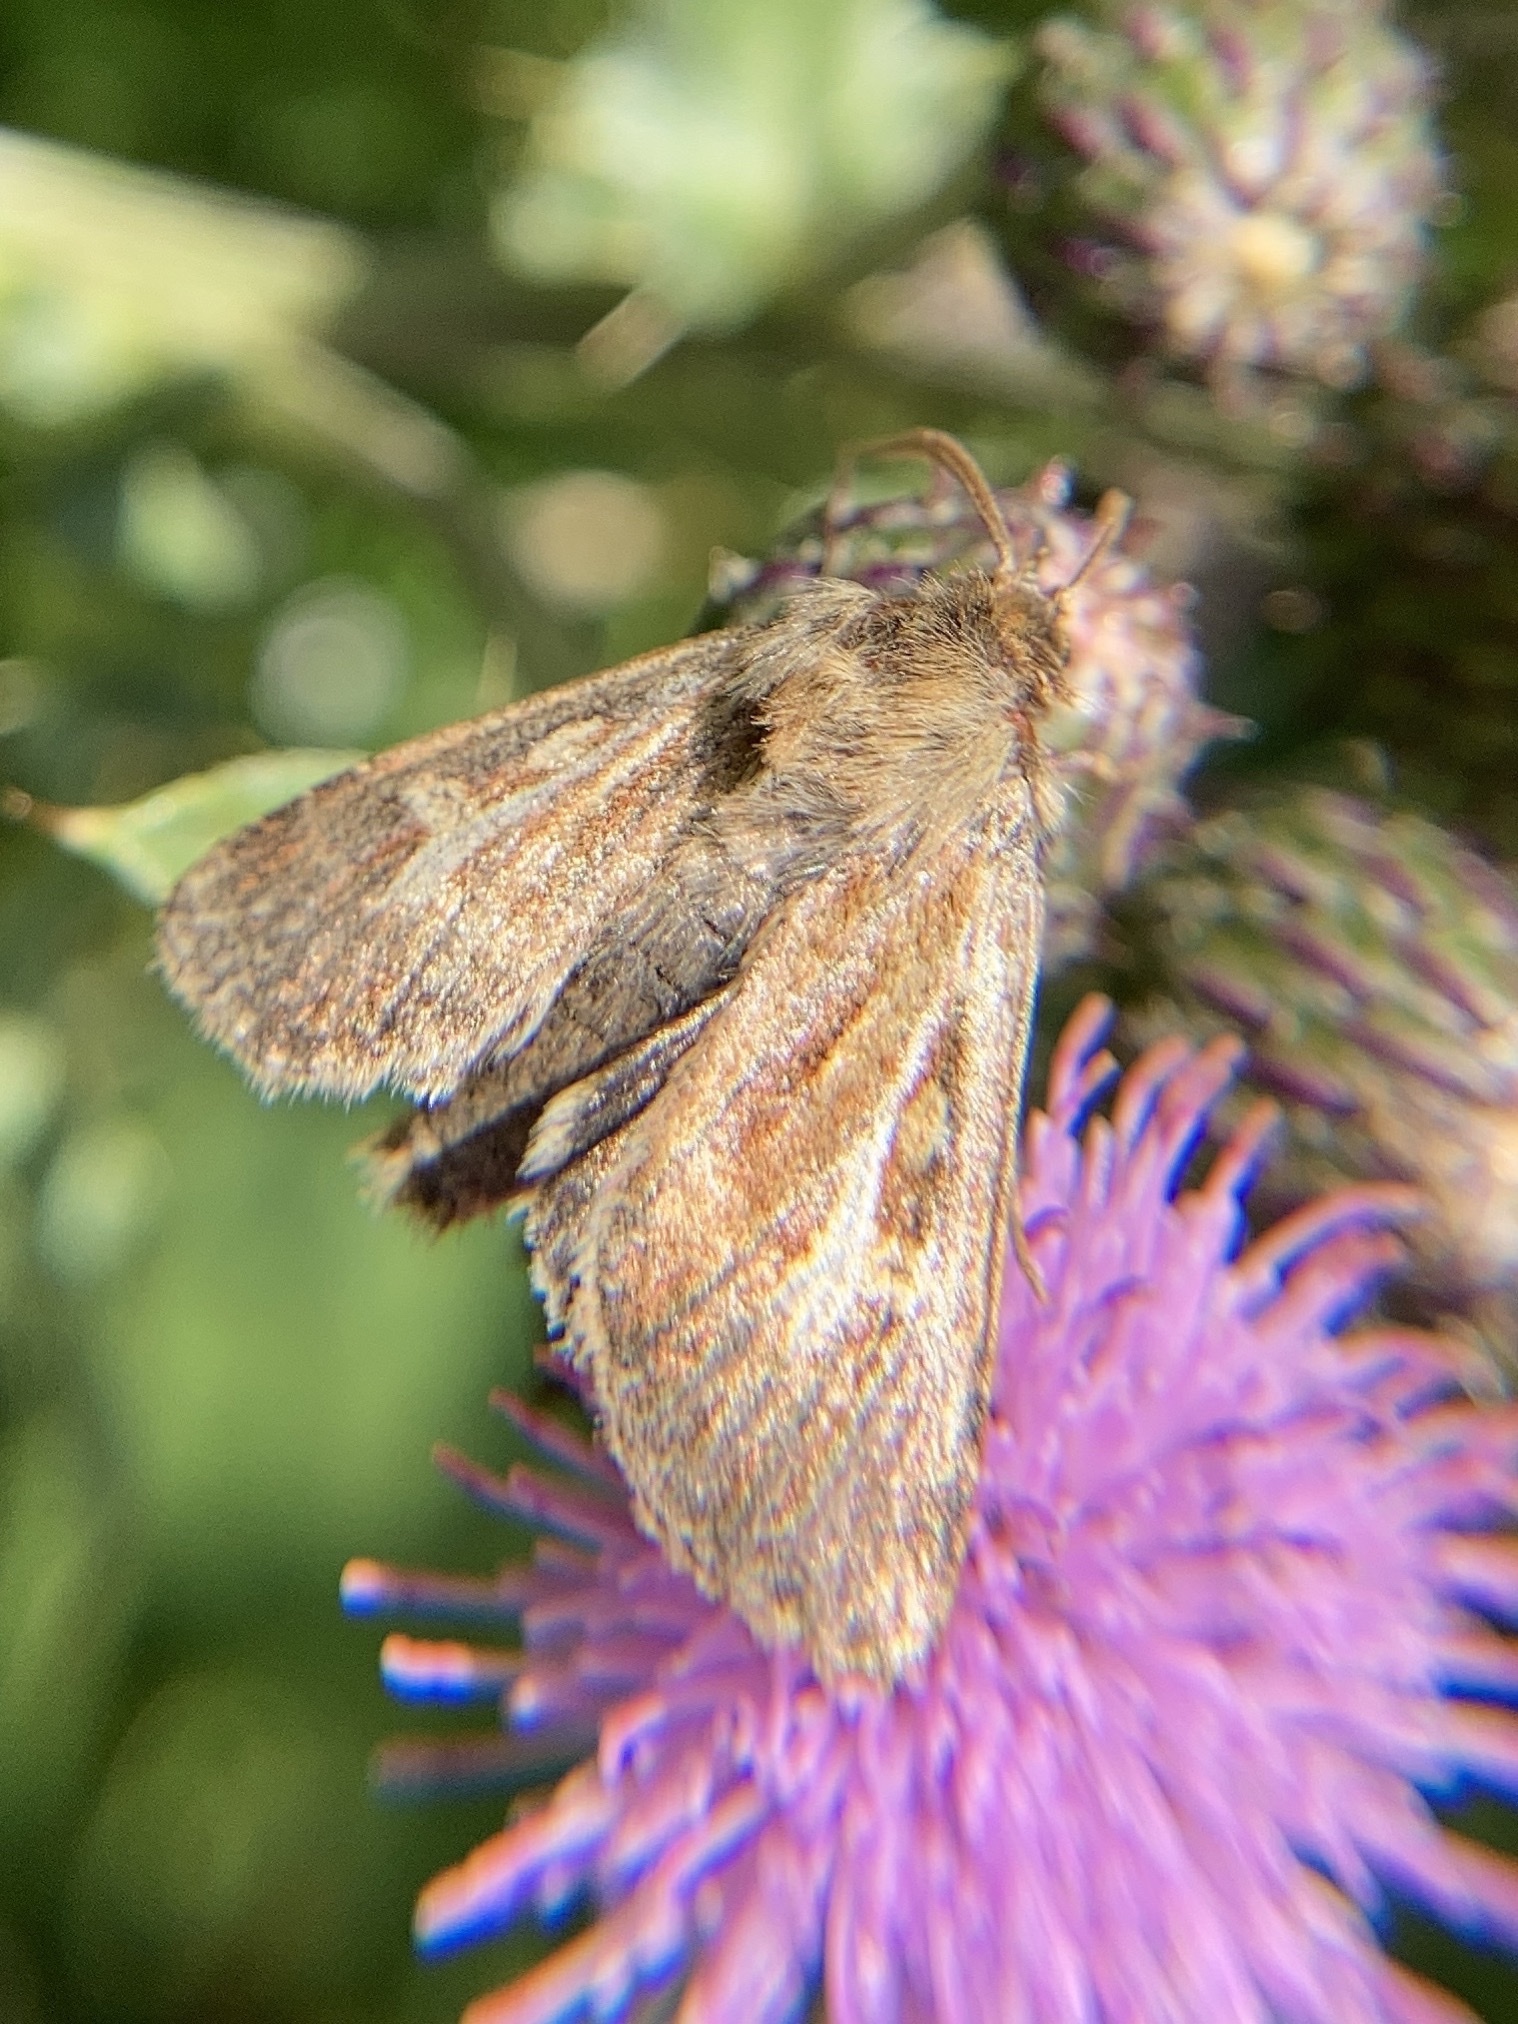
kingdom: Animalia
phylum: Arthropoda
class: Insecta
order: Lepidoptera
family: Noctuidae
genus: Cerapteryx
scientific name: Cerapteryx graminis
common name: Antler moth
